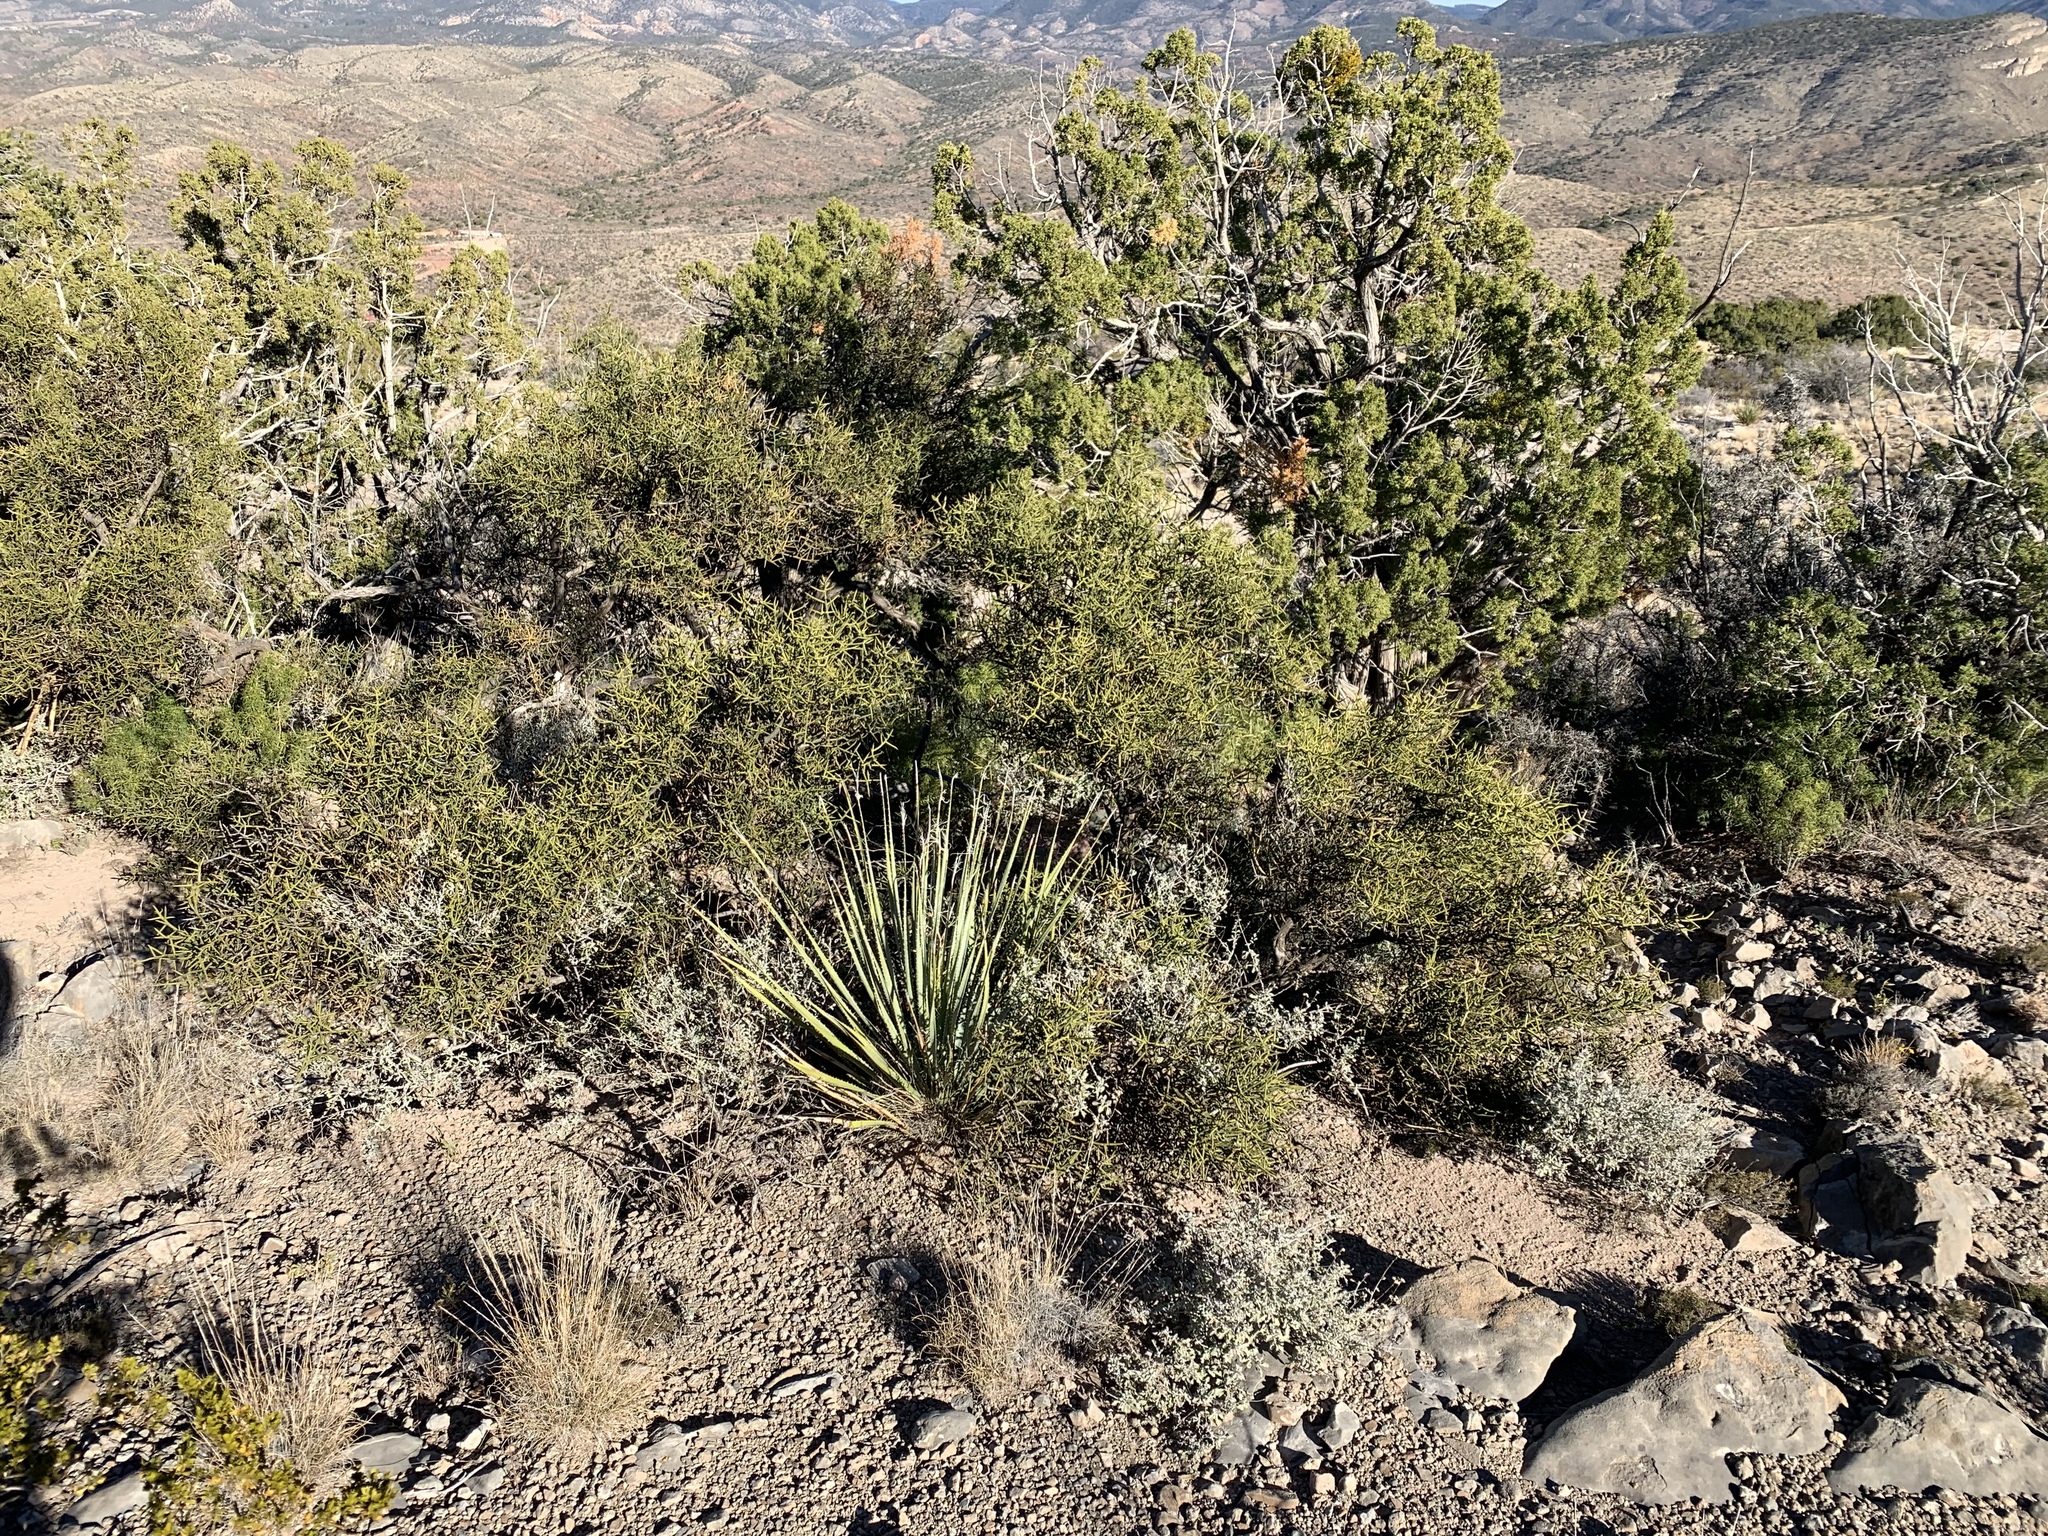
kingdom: Plantae
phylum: Tracheophyta
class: Magnoliopsida
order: Brassicales
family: Koeberliniaceae
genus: Koeberlinia
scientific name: Koeberlinia spinosa
